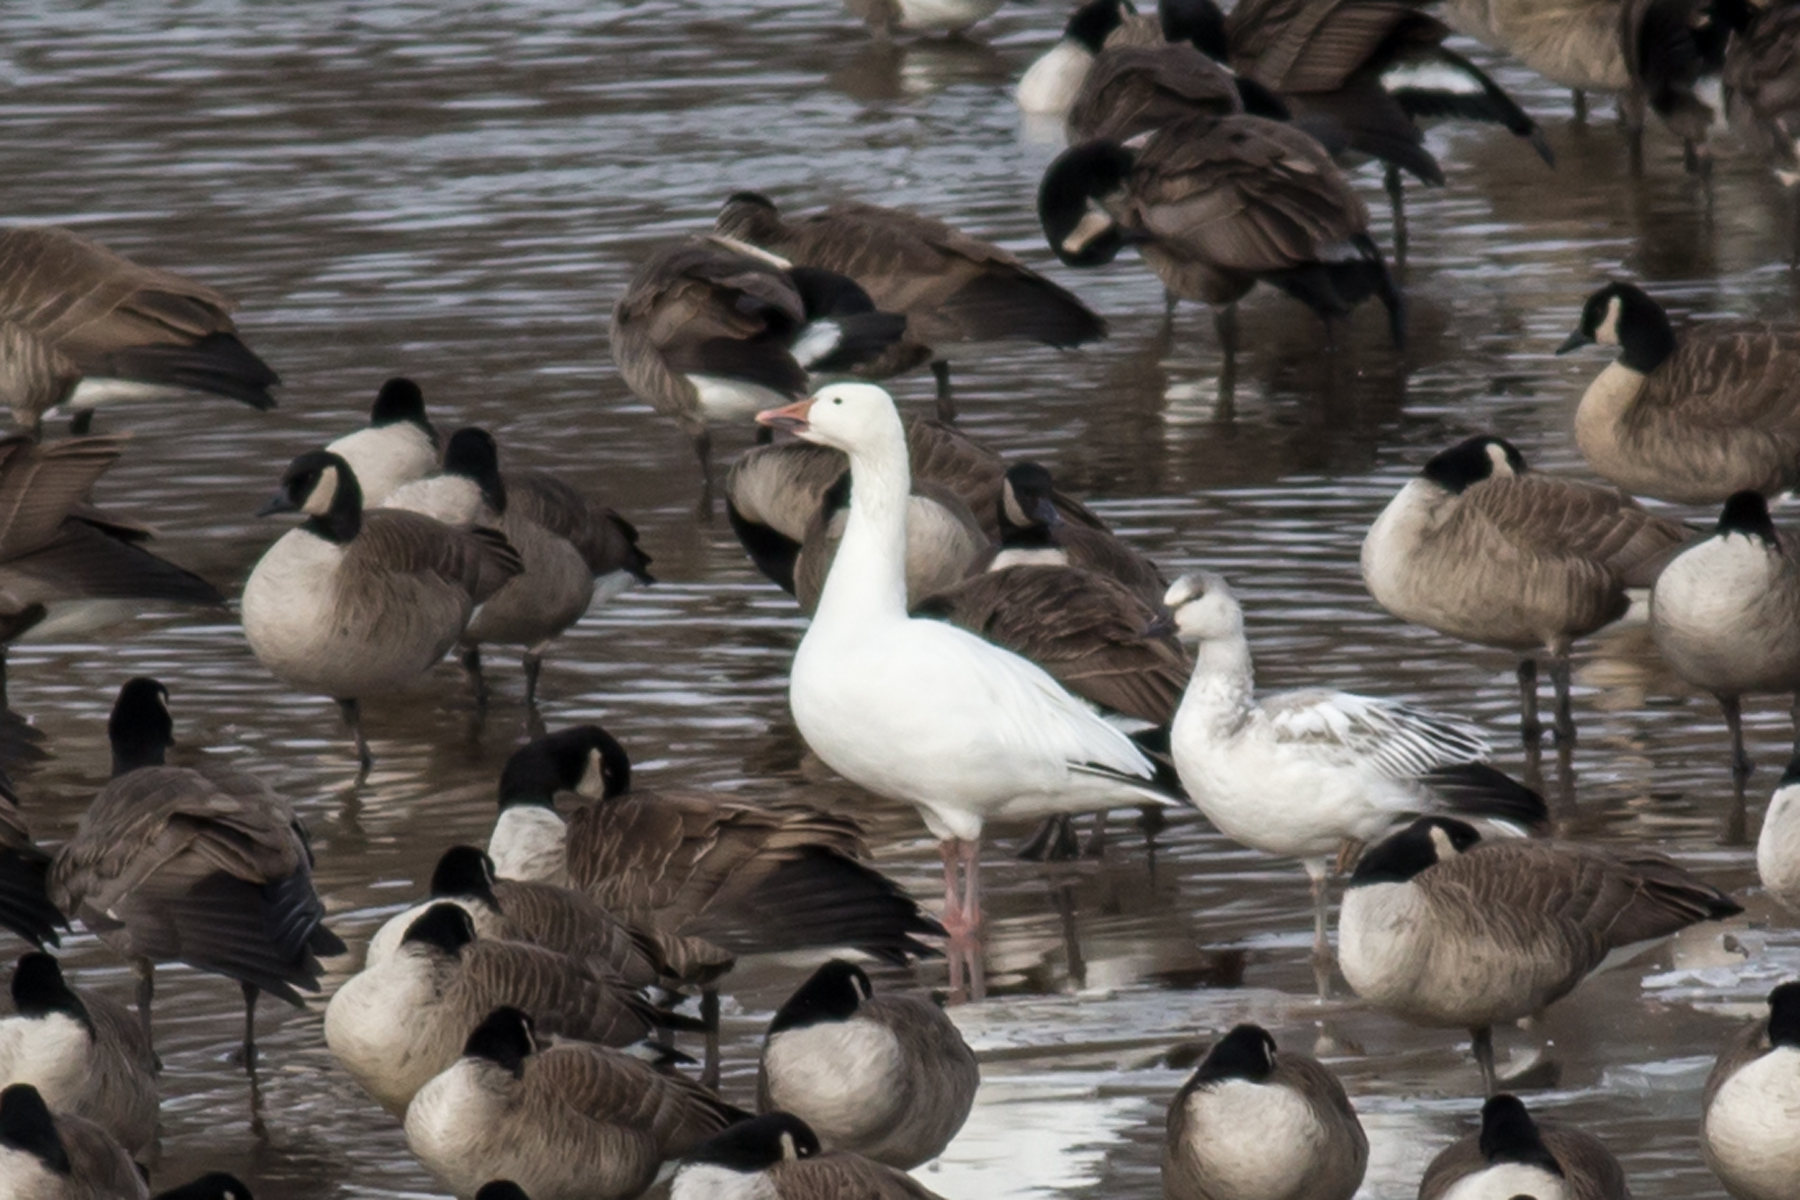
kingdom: Animalia
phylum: Chordata
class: Aves
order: Anseriformes
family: Anatidae
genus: Anser
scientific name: Anser caerulescens
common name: Snow goose
